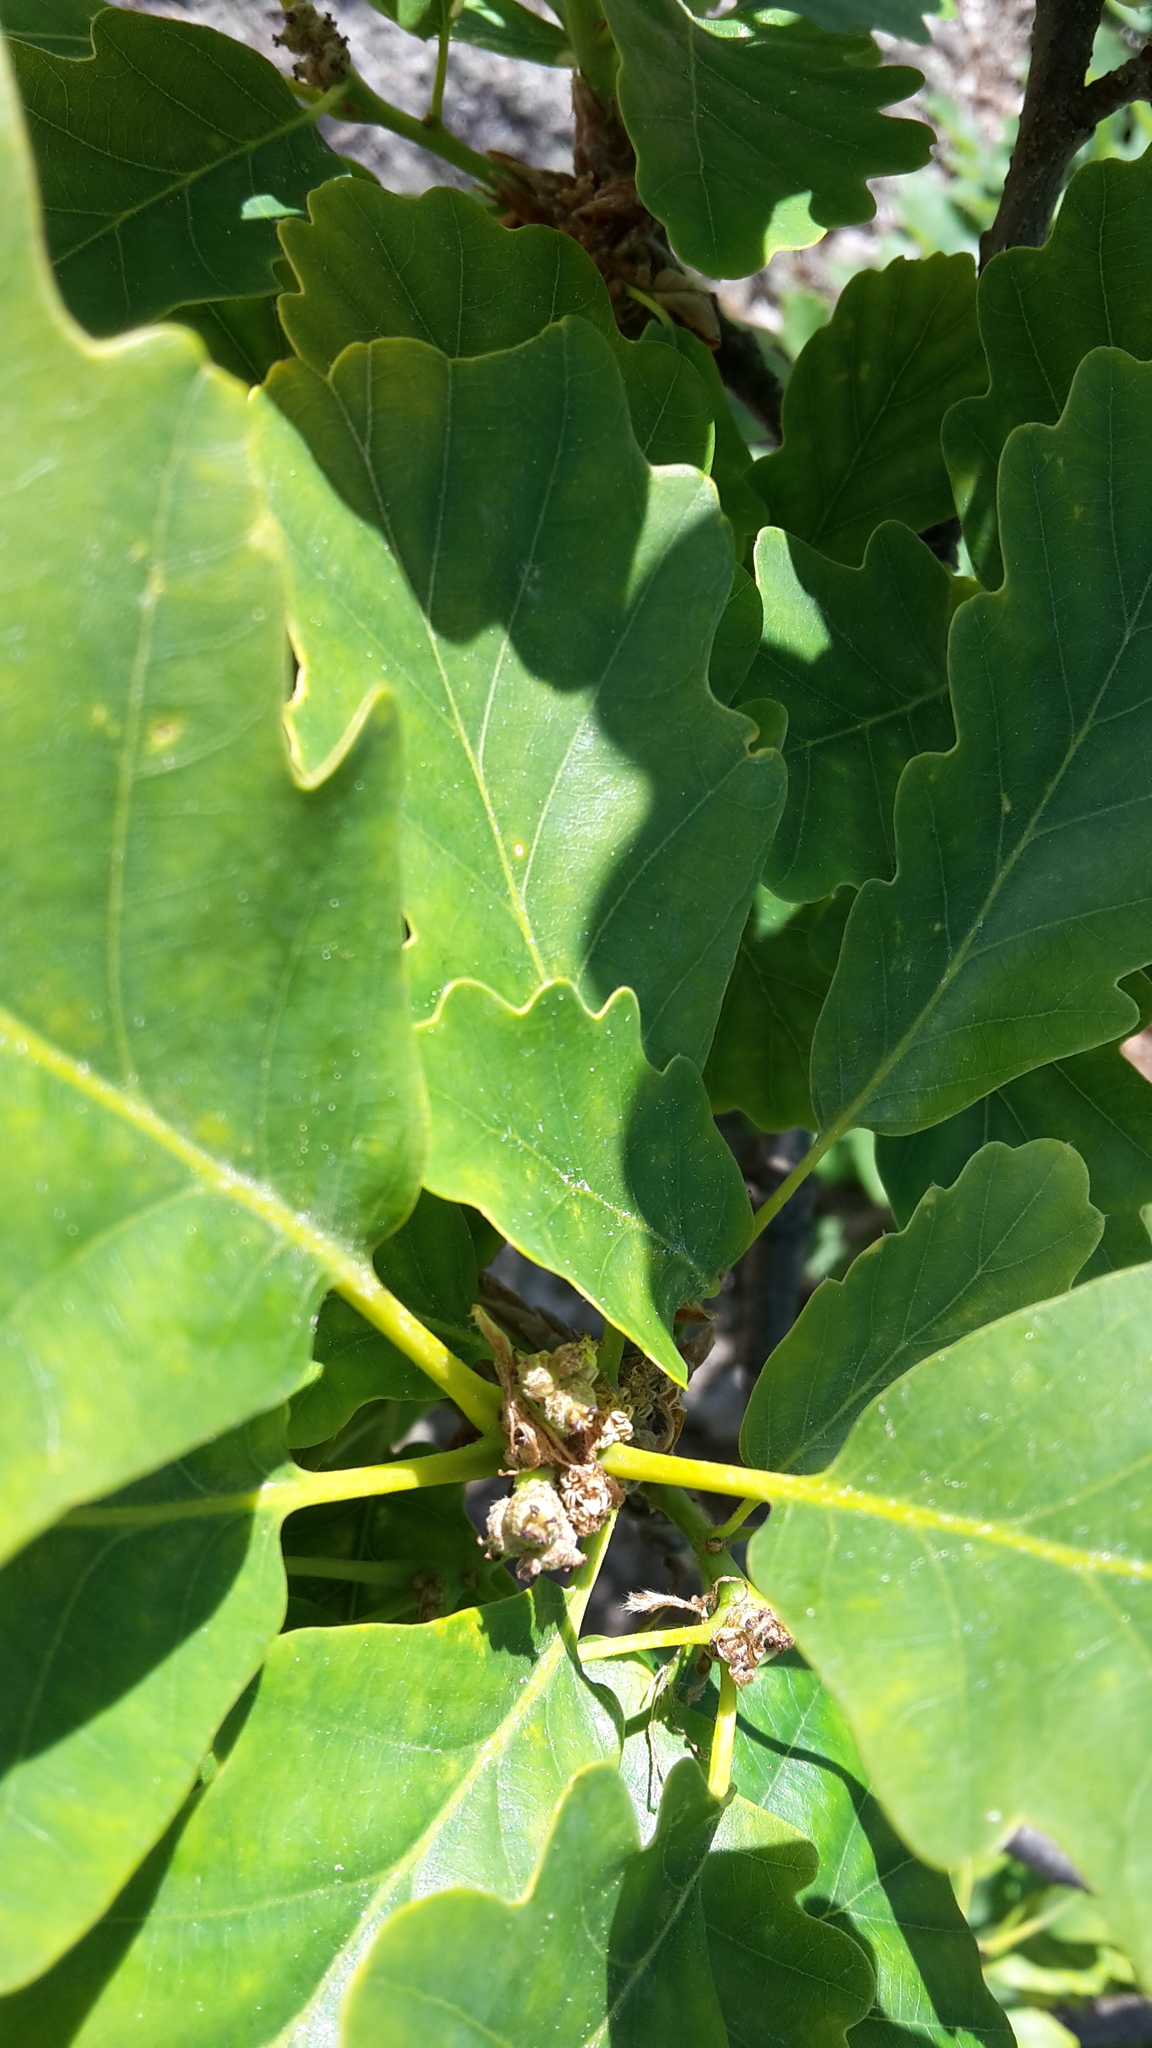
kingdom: Plantae
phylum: Tracheophyta
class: Magnoliopsida
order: Fagales
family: Fagaceae
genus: Quercus
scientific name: Quercus petraea
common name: Sessile oak
